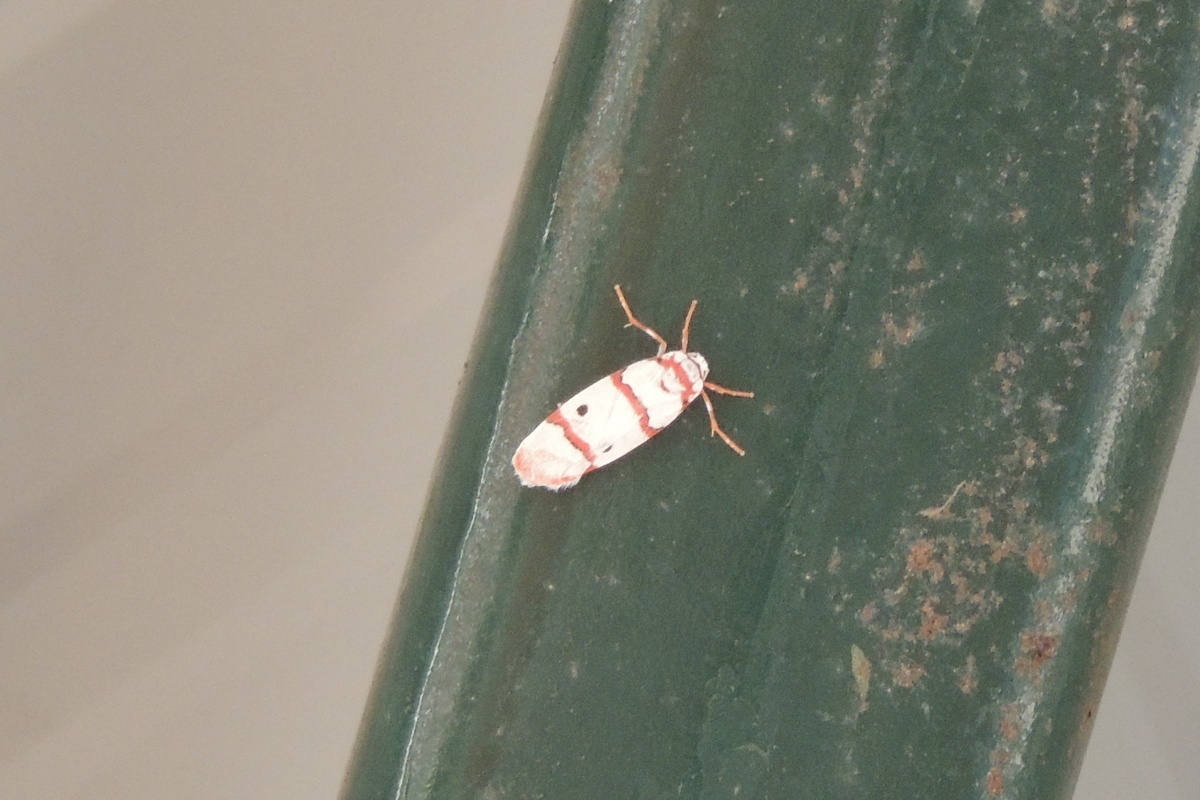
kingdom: Animalia
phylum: Arthropoda
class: Insecta
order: Lepidoptera
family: Erebidae
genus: Cyana
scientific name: Cyana peregrina
